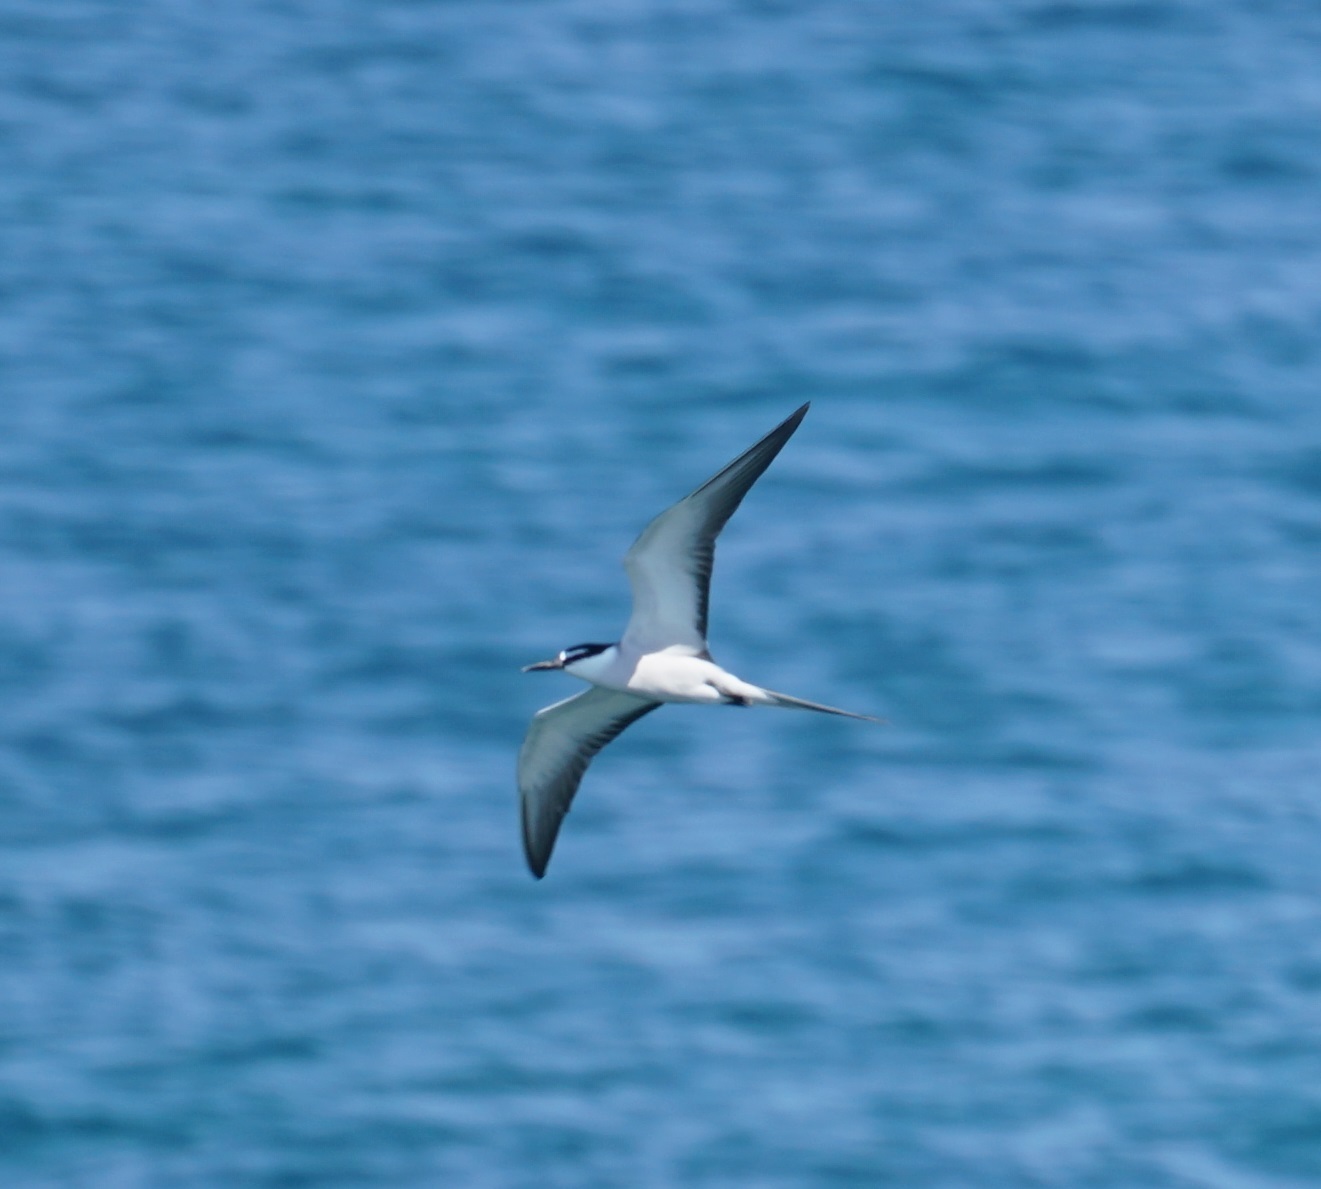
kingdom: Animalia
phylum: Chordata
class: Aves
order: Charadriiformes
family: Laridae
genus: Onychoprion
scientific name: Onychoprion anaethetus
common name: Bridled tern
